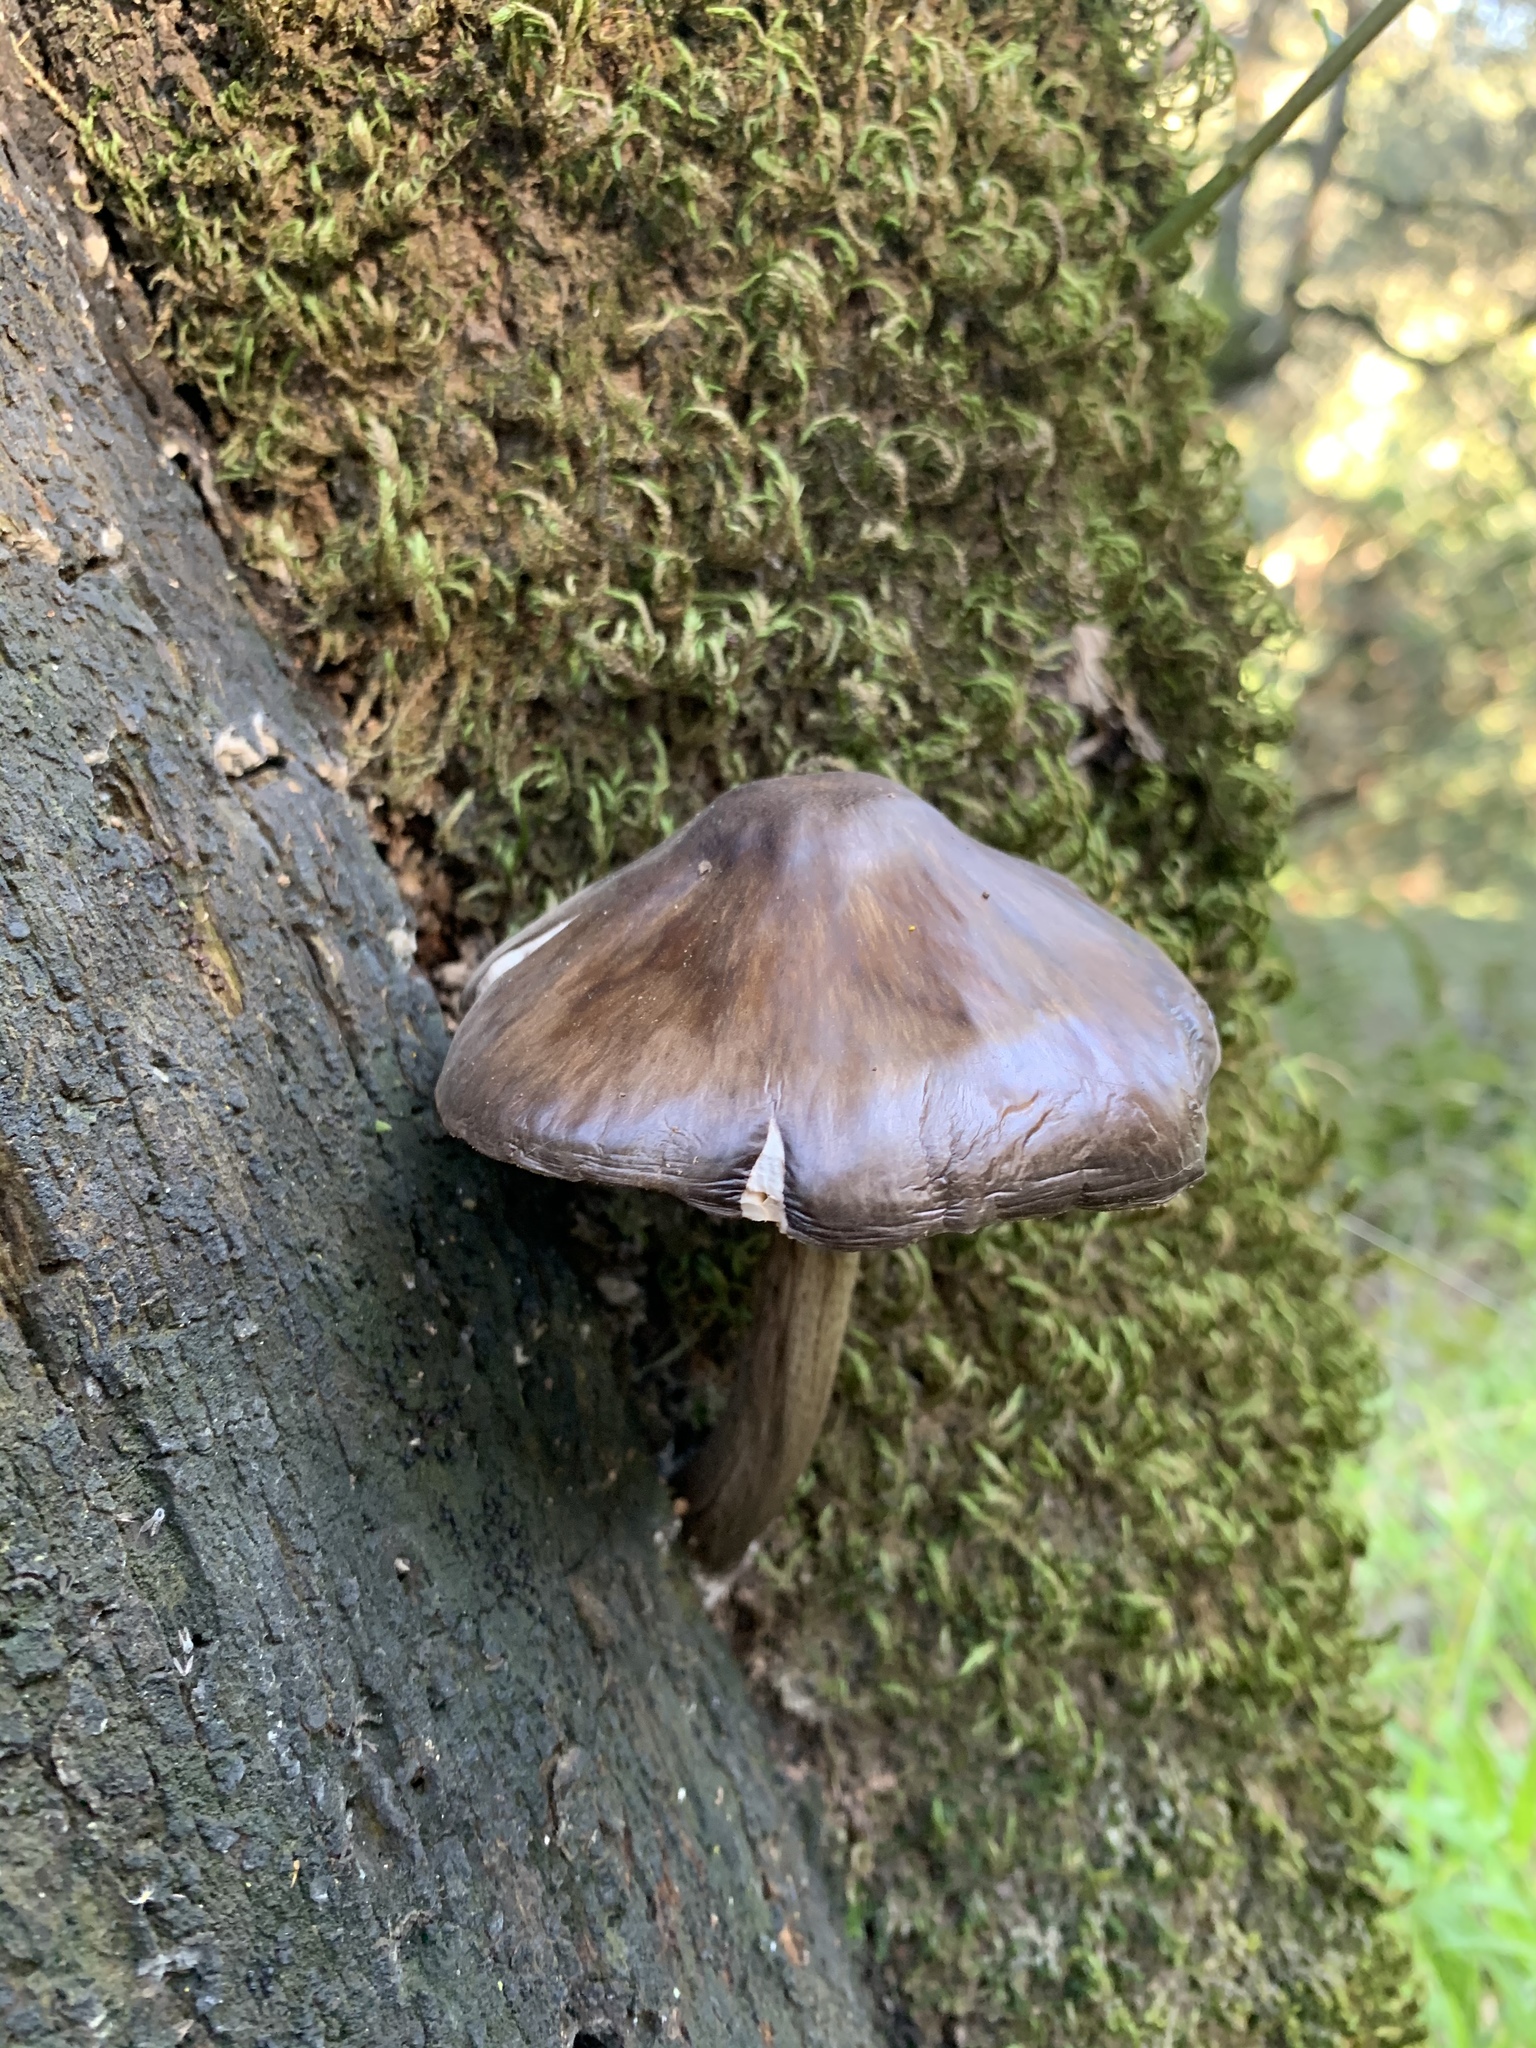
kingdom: Fungi
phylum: Basidiomycota
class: Agaricomycetes
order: Agaricales
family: Pluteaceae
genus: Pluteus
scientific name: Pluteus exilis
